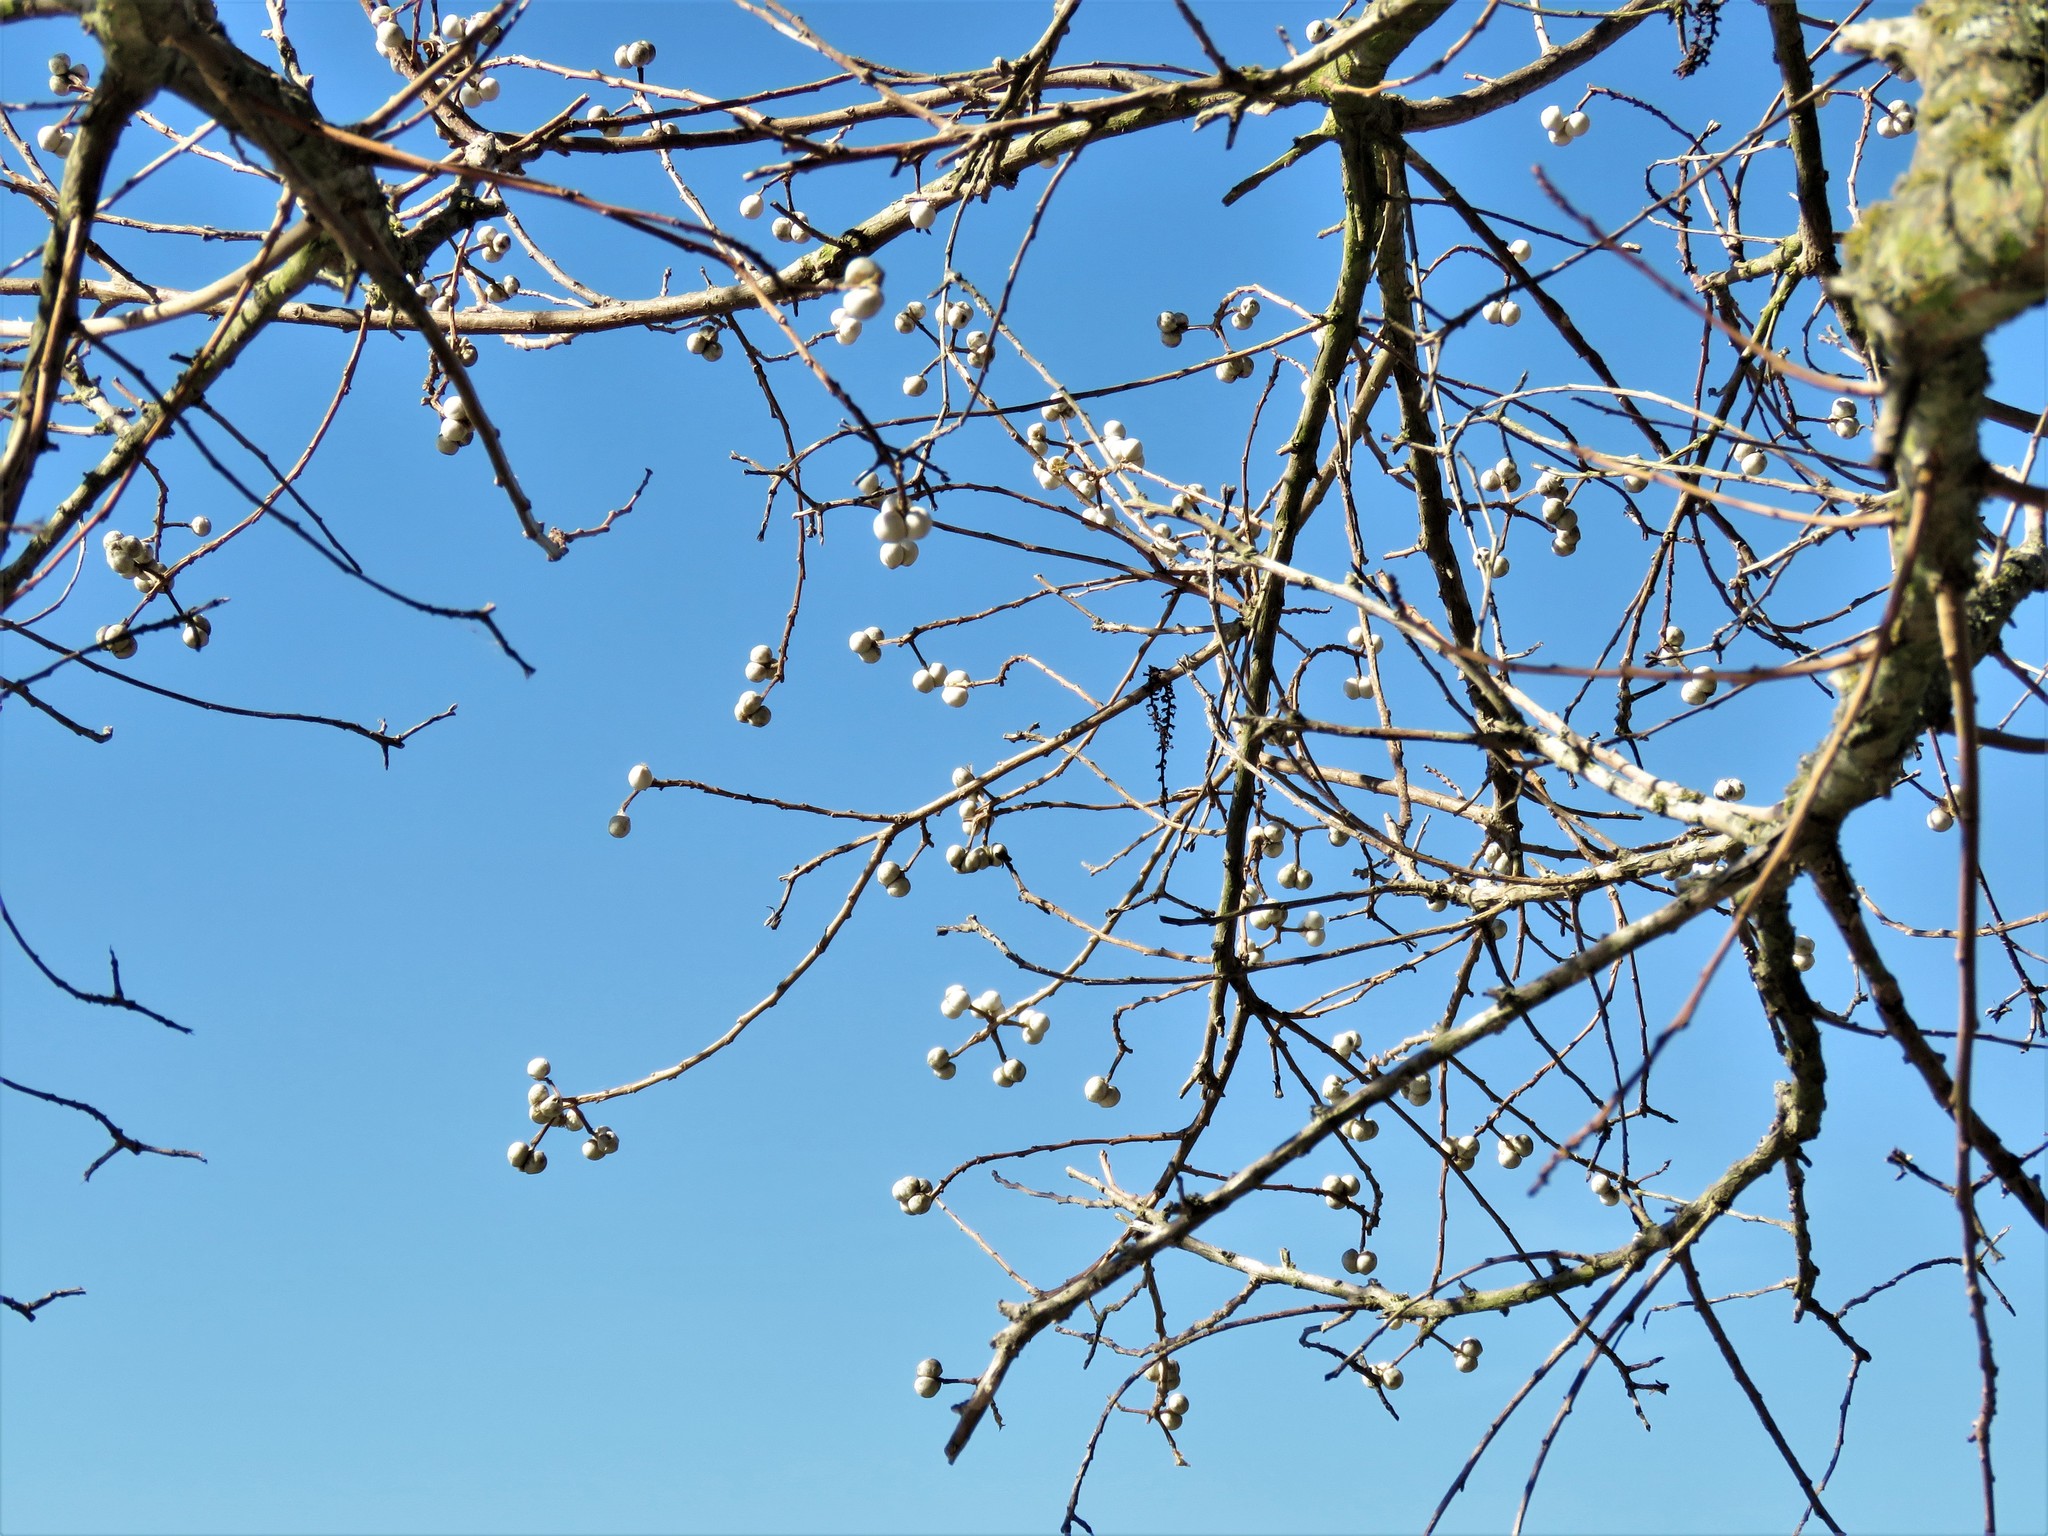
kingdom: Plantae
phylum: Tracheophyta
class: Magnoliopsida
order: Malpighiales
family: Euphorbiaceae
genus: Triadica
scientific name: Triadica sebifera
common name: Chinese tallow
